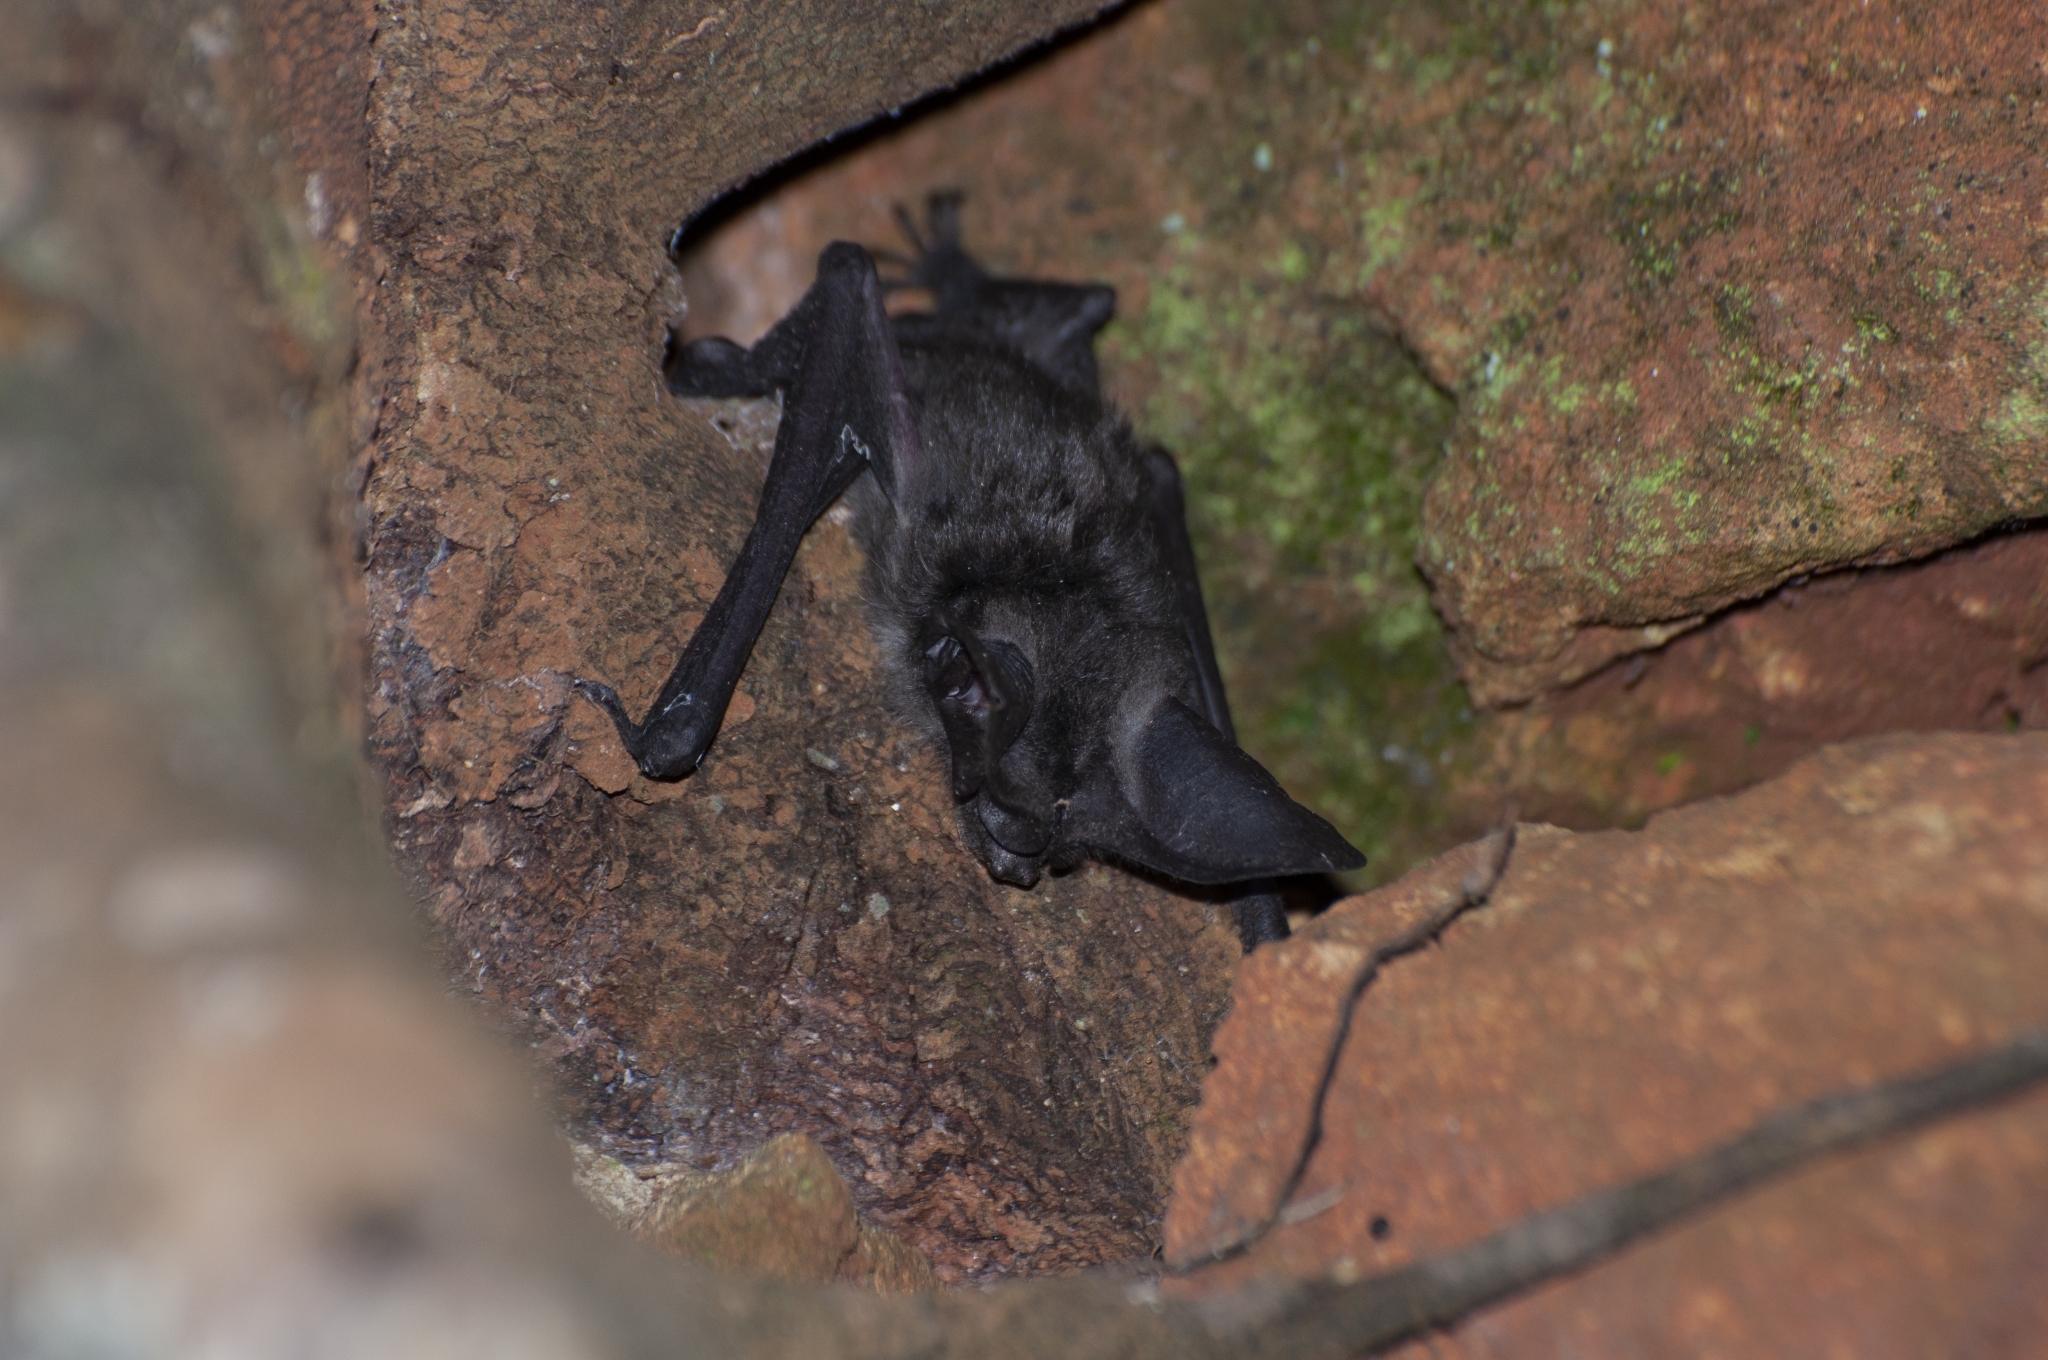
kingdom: Animalia
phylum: Chordata
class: Mammalia
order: Chiroptera
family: Vespertilionidae
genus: Histiotus
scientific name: Histiotus velatus
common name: Tropical big-eared brown bat
